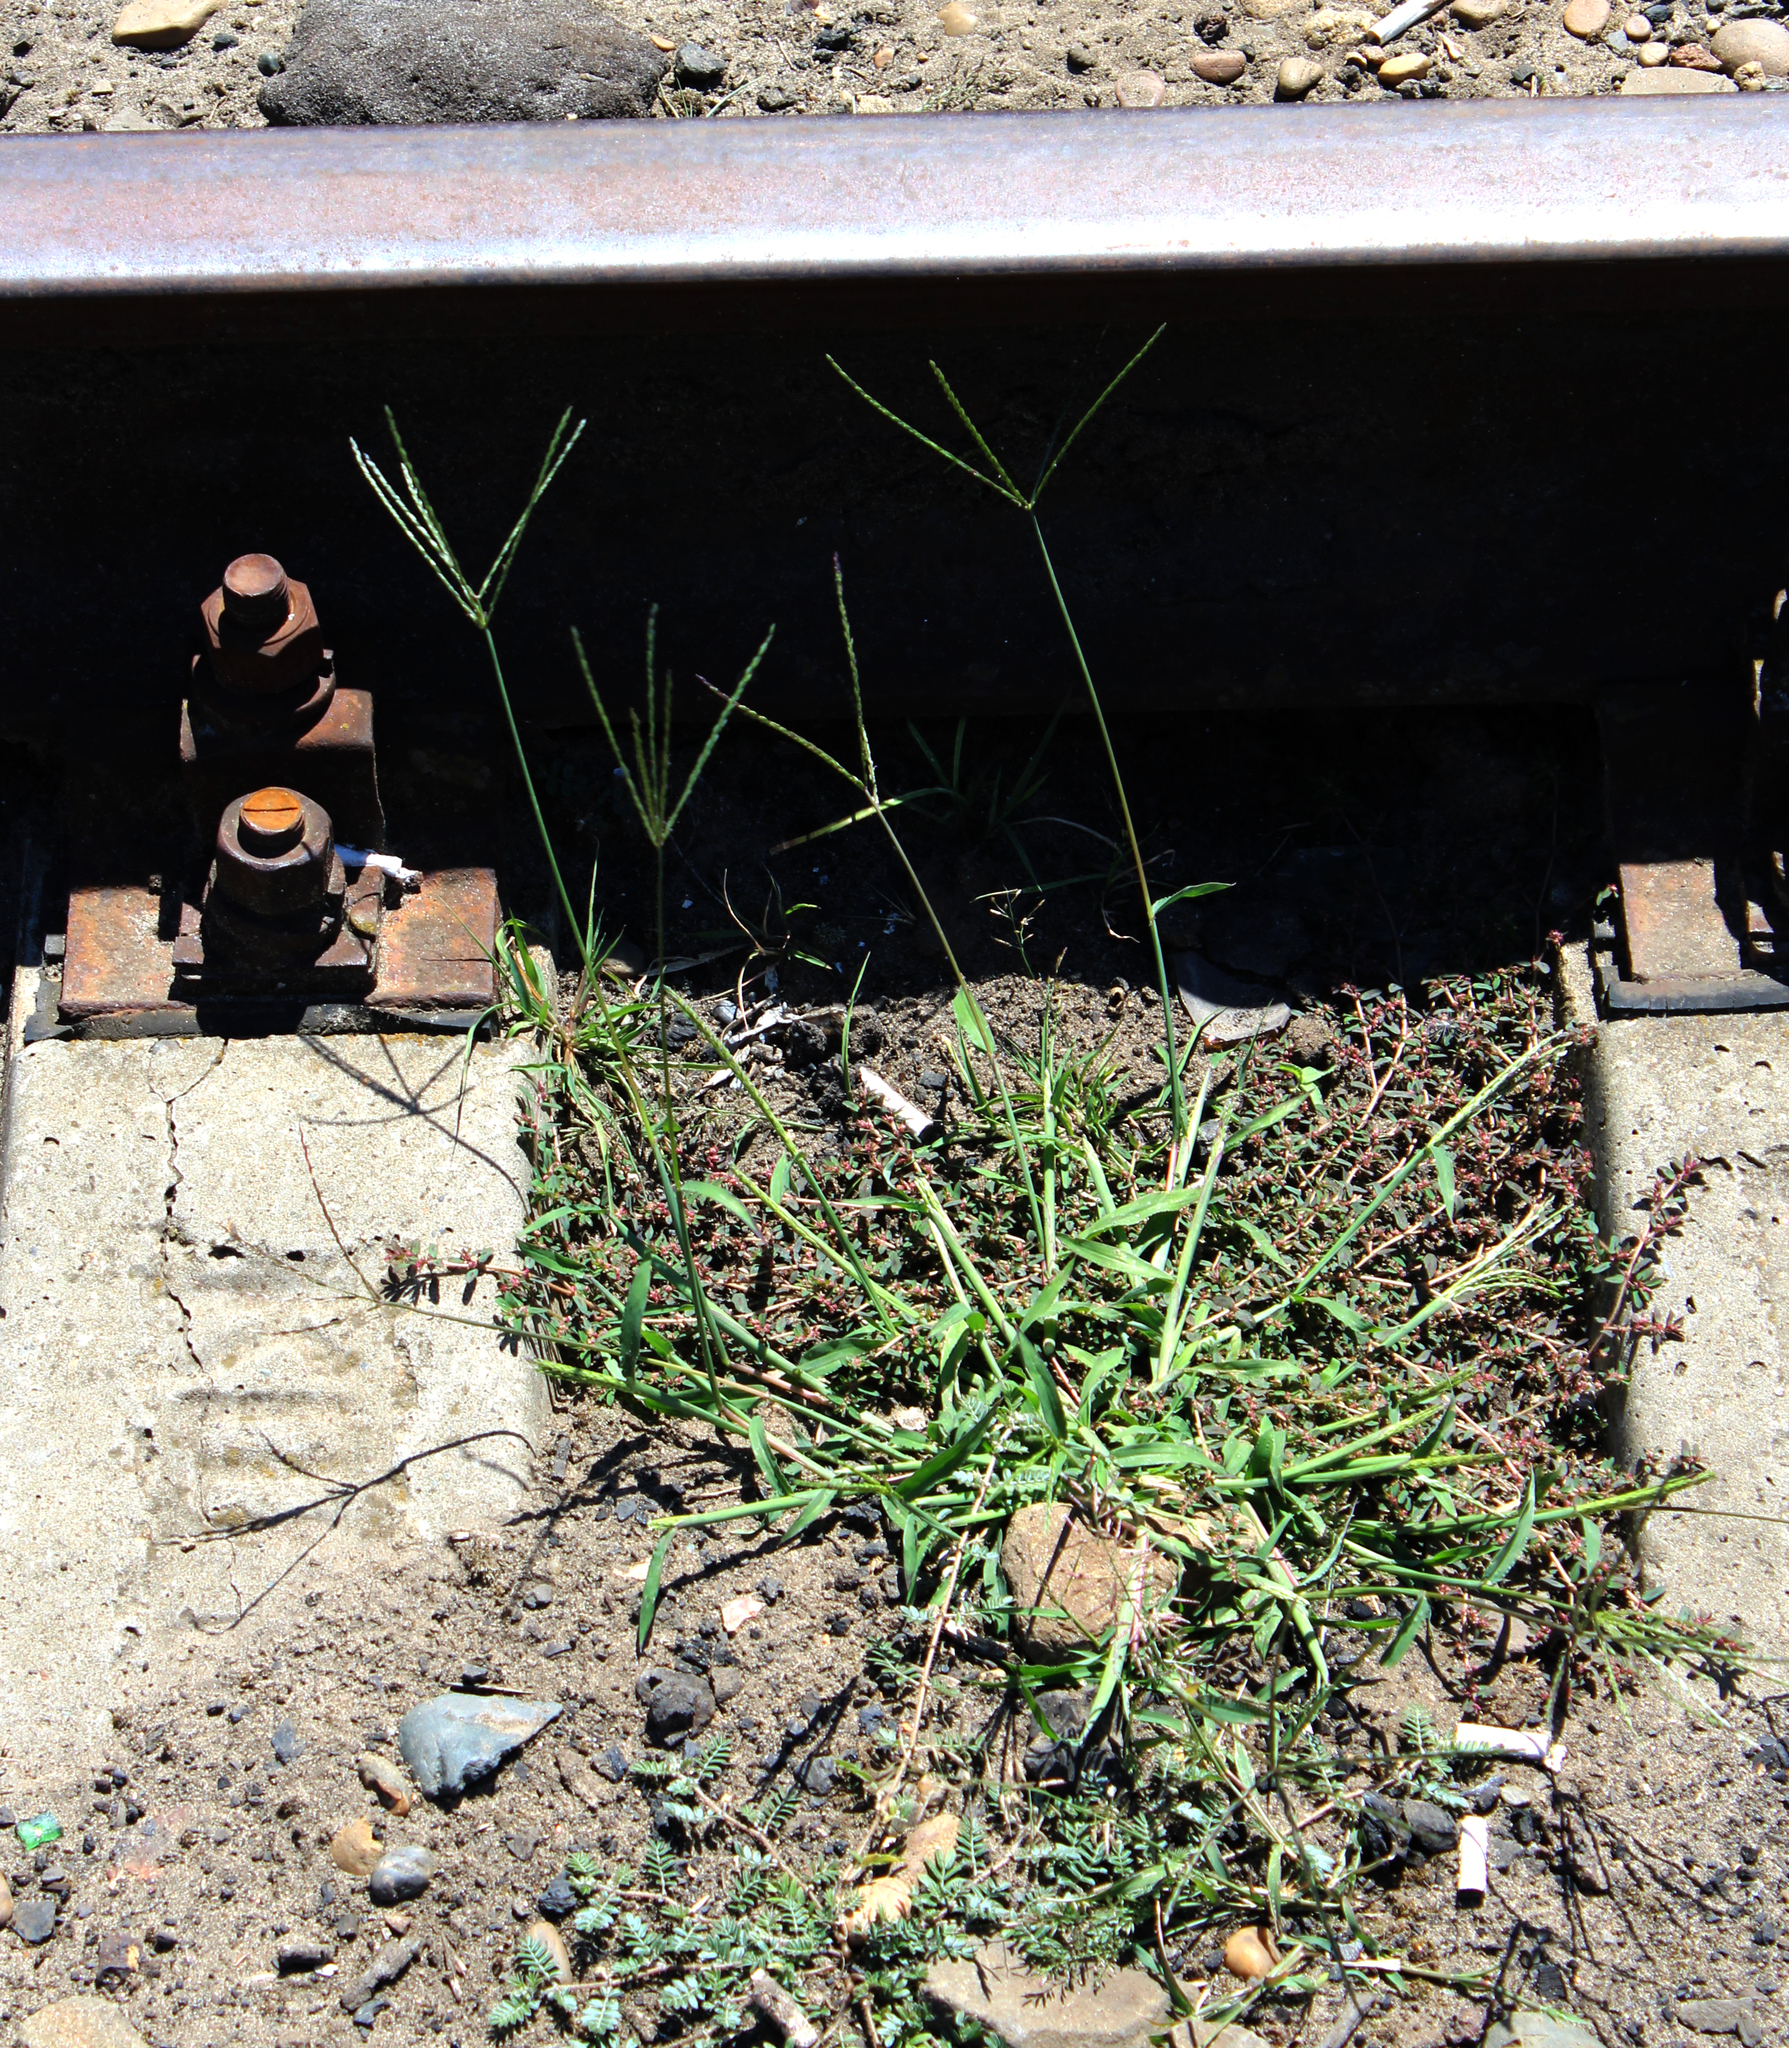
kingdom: Plantae
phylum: Tracheophyta
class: Liliopsida
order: Poales
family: Poaceae
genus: Digitaria
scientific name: Digitaria sanguinalis
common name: Hairy crabgrass
